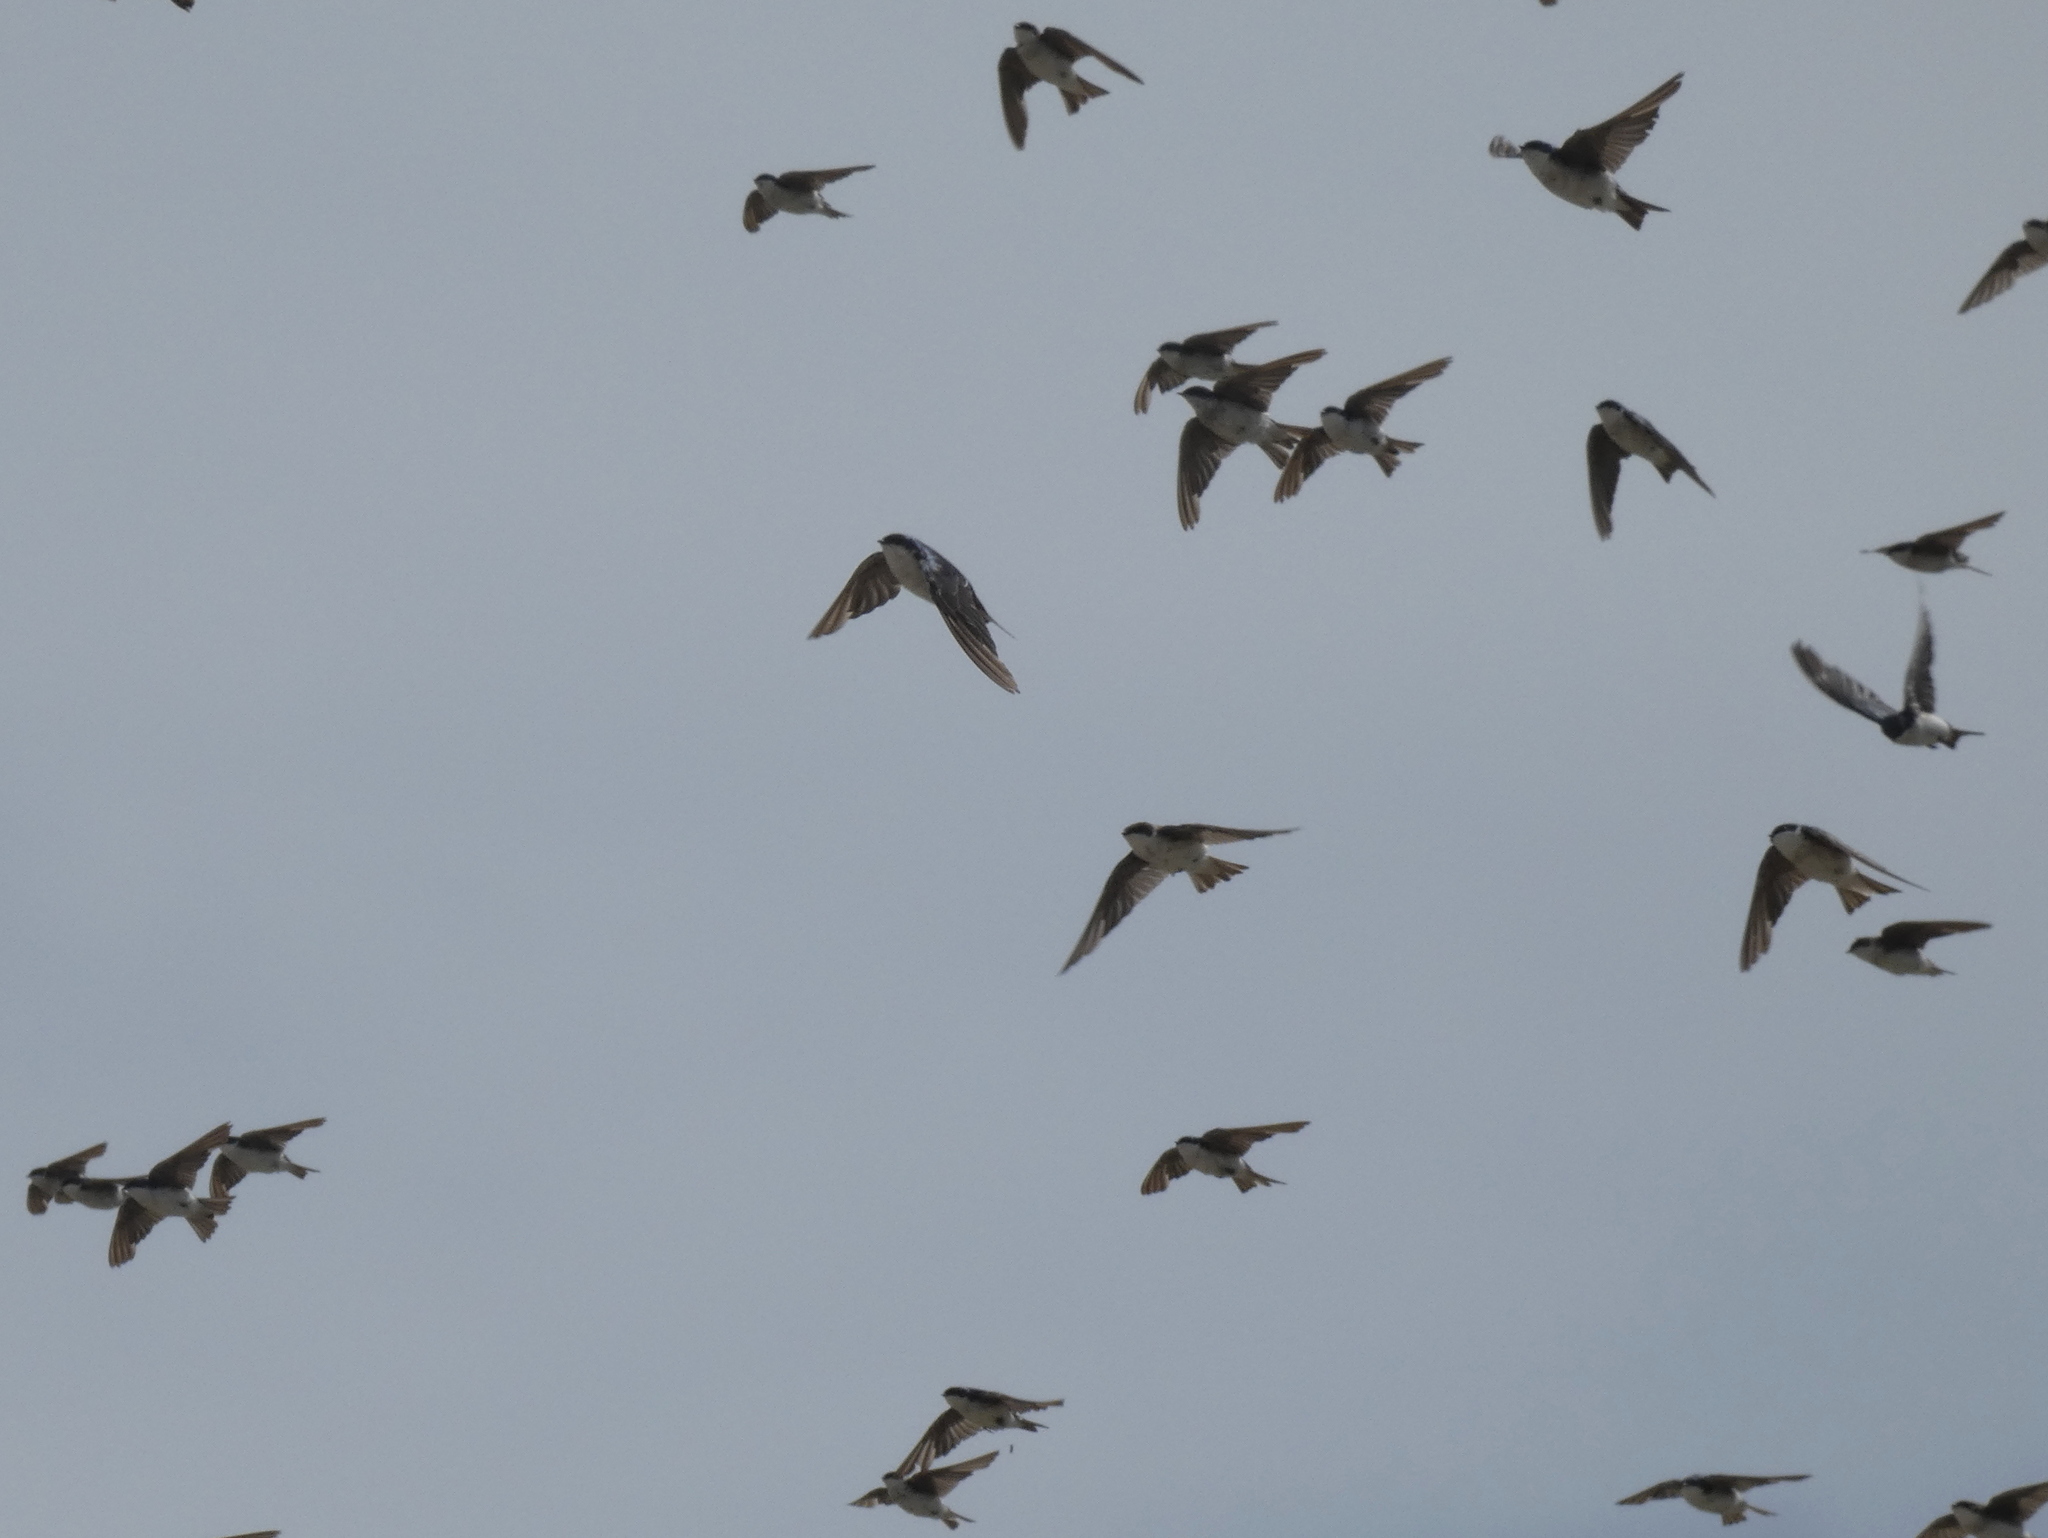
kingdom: Animalia
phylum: Chordata
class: Aves
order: Passeriformes
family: Hirundinidae
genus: Tachycineta
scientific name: Tachycineta bicolor
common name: Tree swallow
